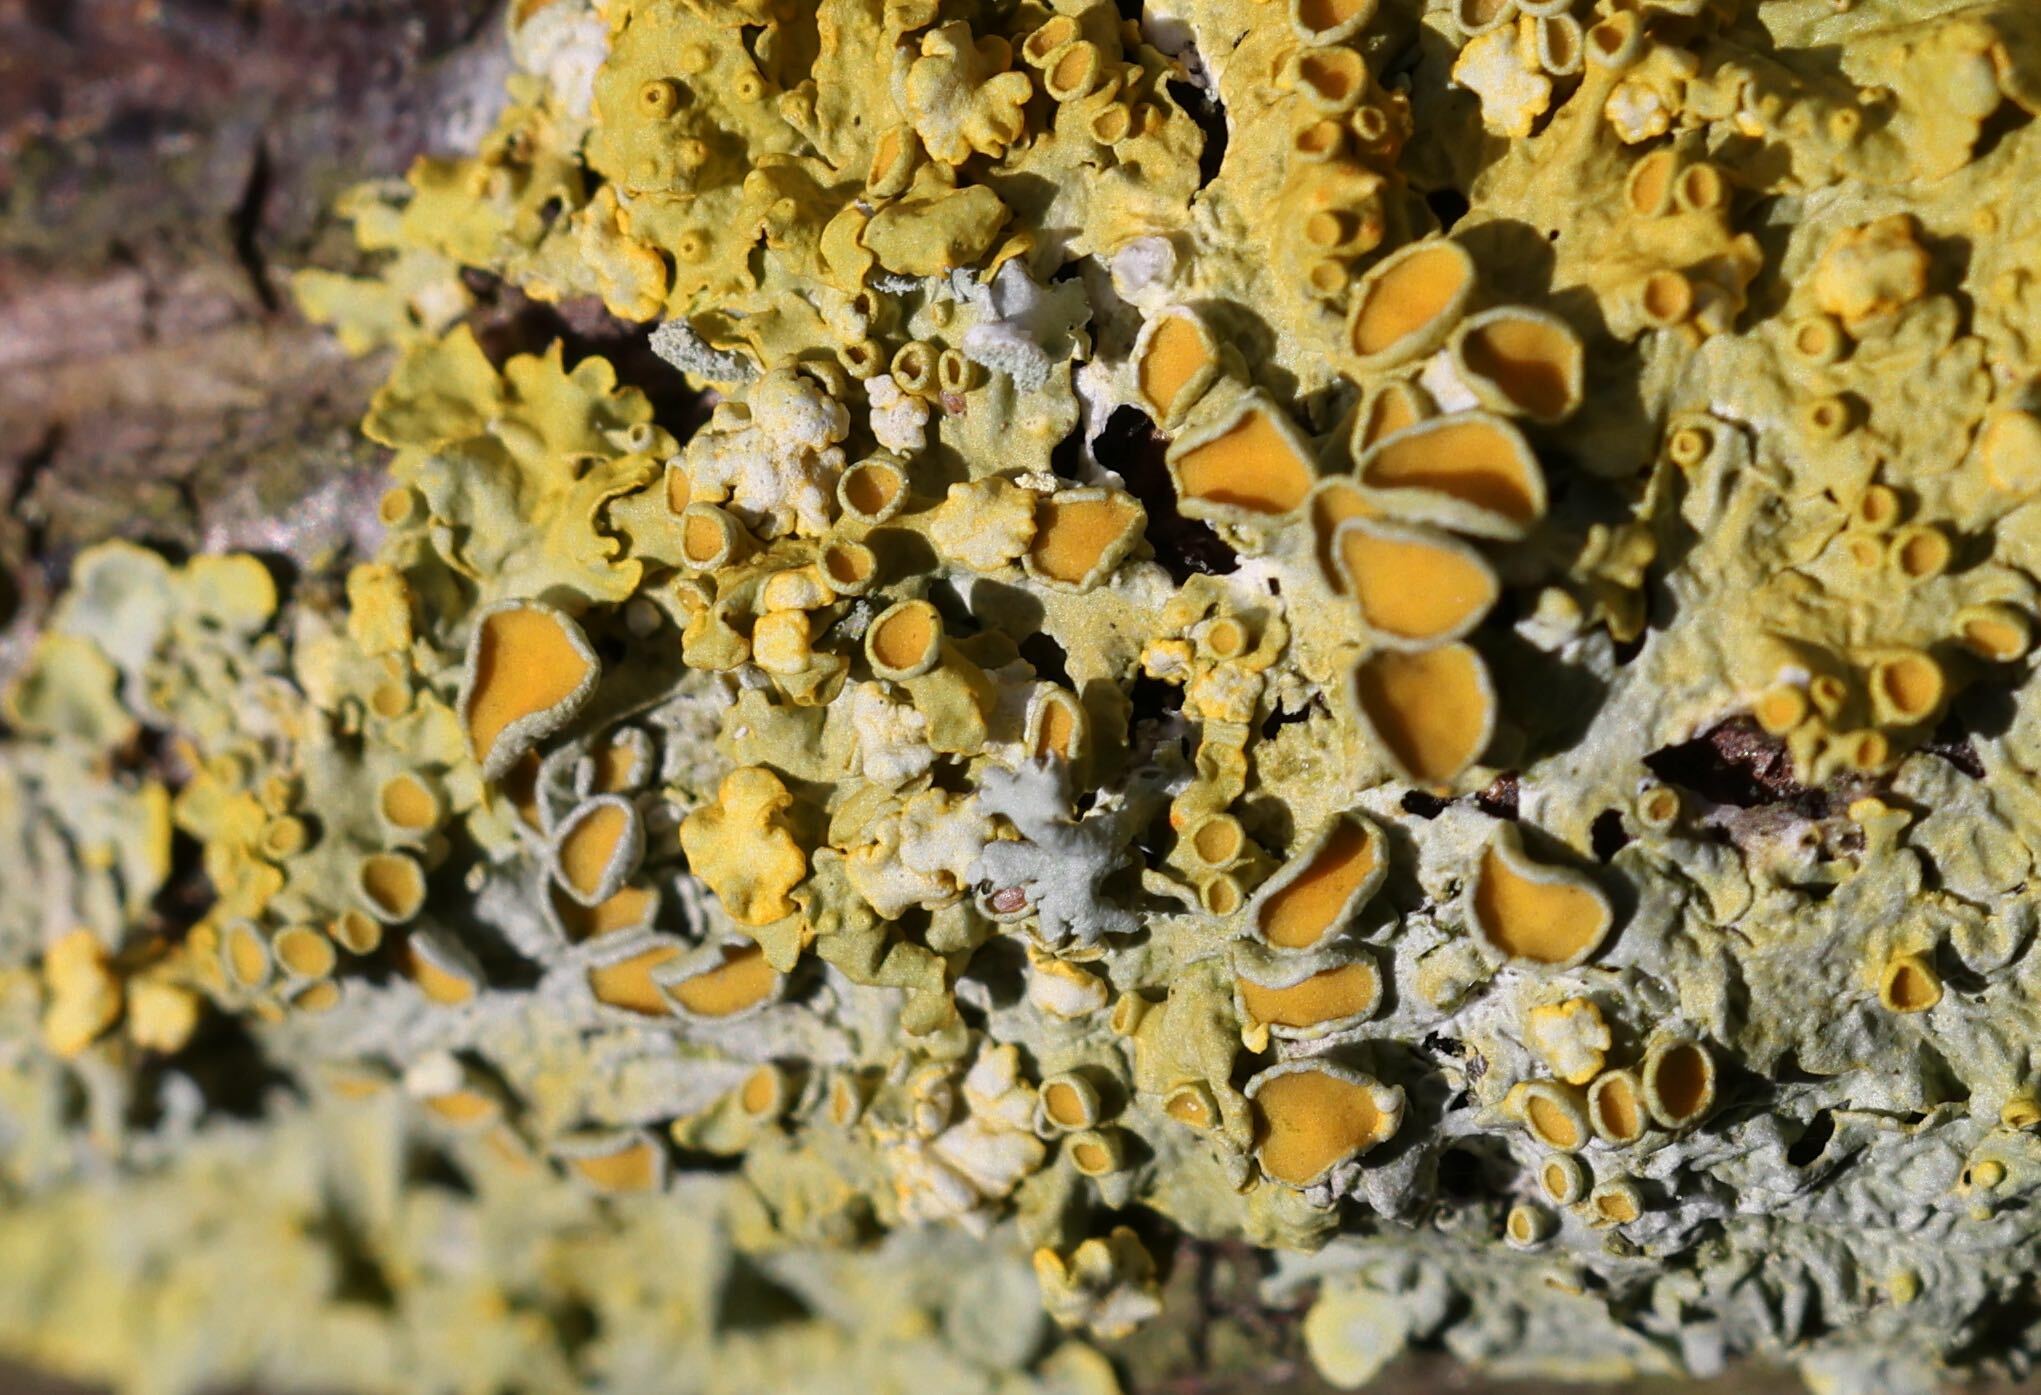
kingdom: Fungi
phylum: Ascomycota
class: Lecanoromycetes
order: Teloschistales
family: Teloschistaceae
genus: Xanthoria
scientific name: Xanthoria parietina
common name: Common orange lichen
